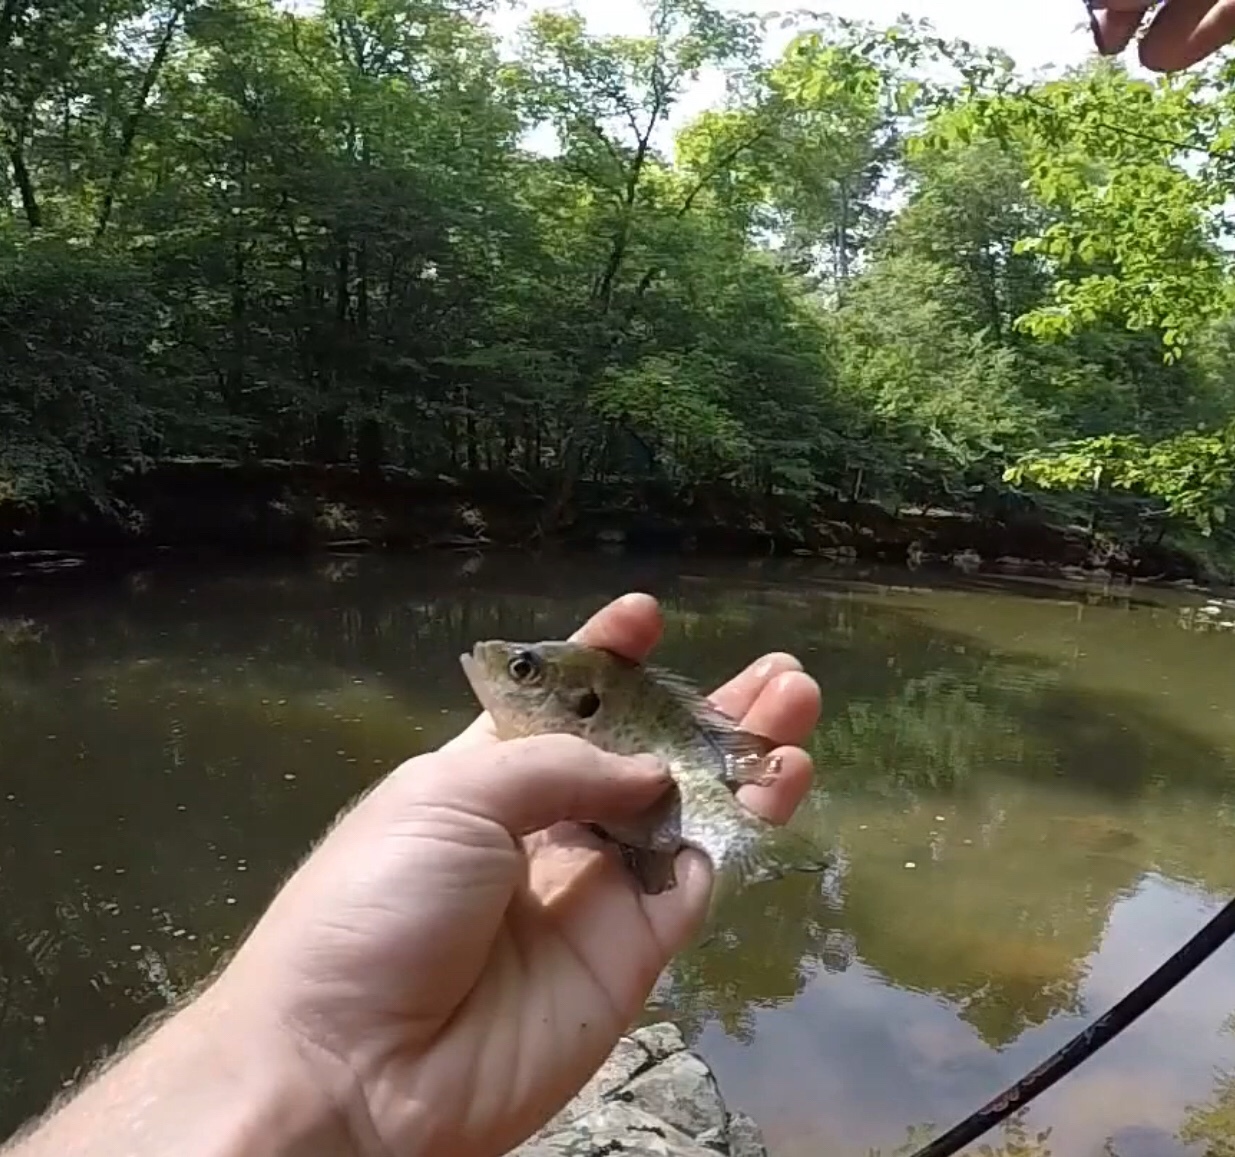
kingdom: Animalia
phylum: Chordata
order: Perciformes
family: Centrarchidae
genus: Lepomis
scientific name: Lepomis microlophus
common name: Redear sunfish
